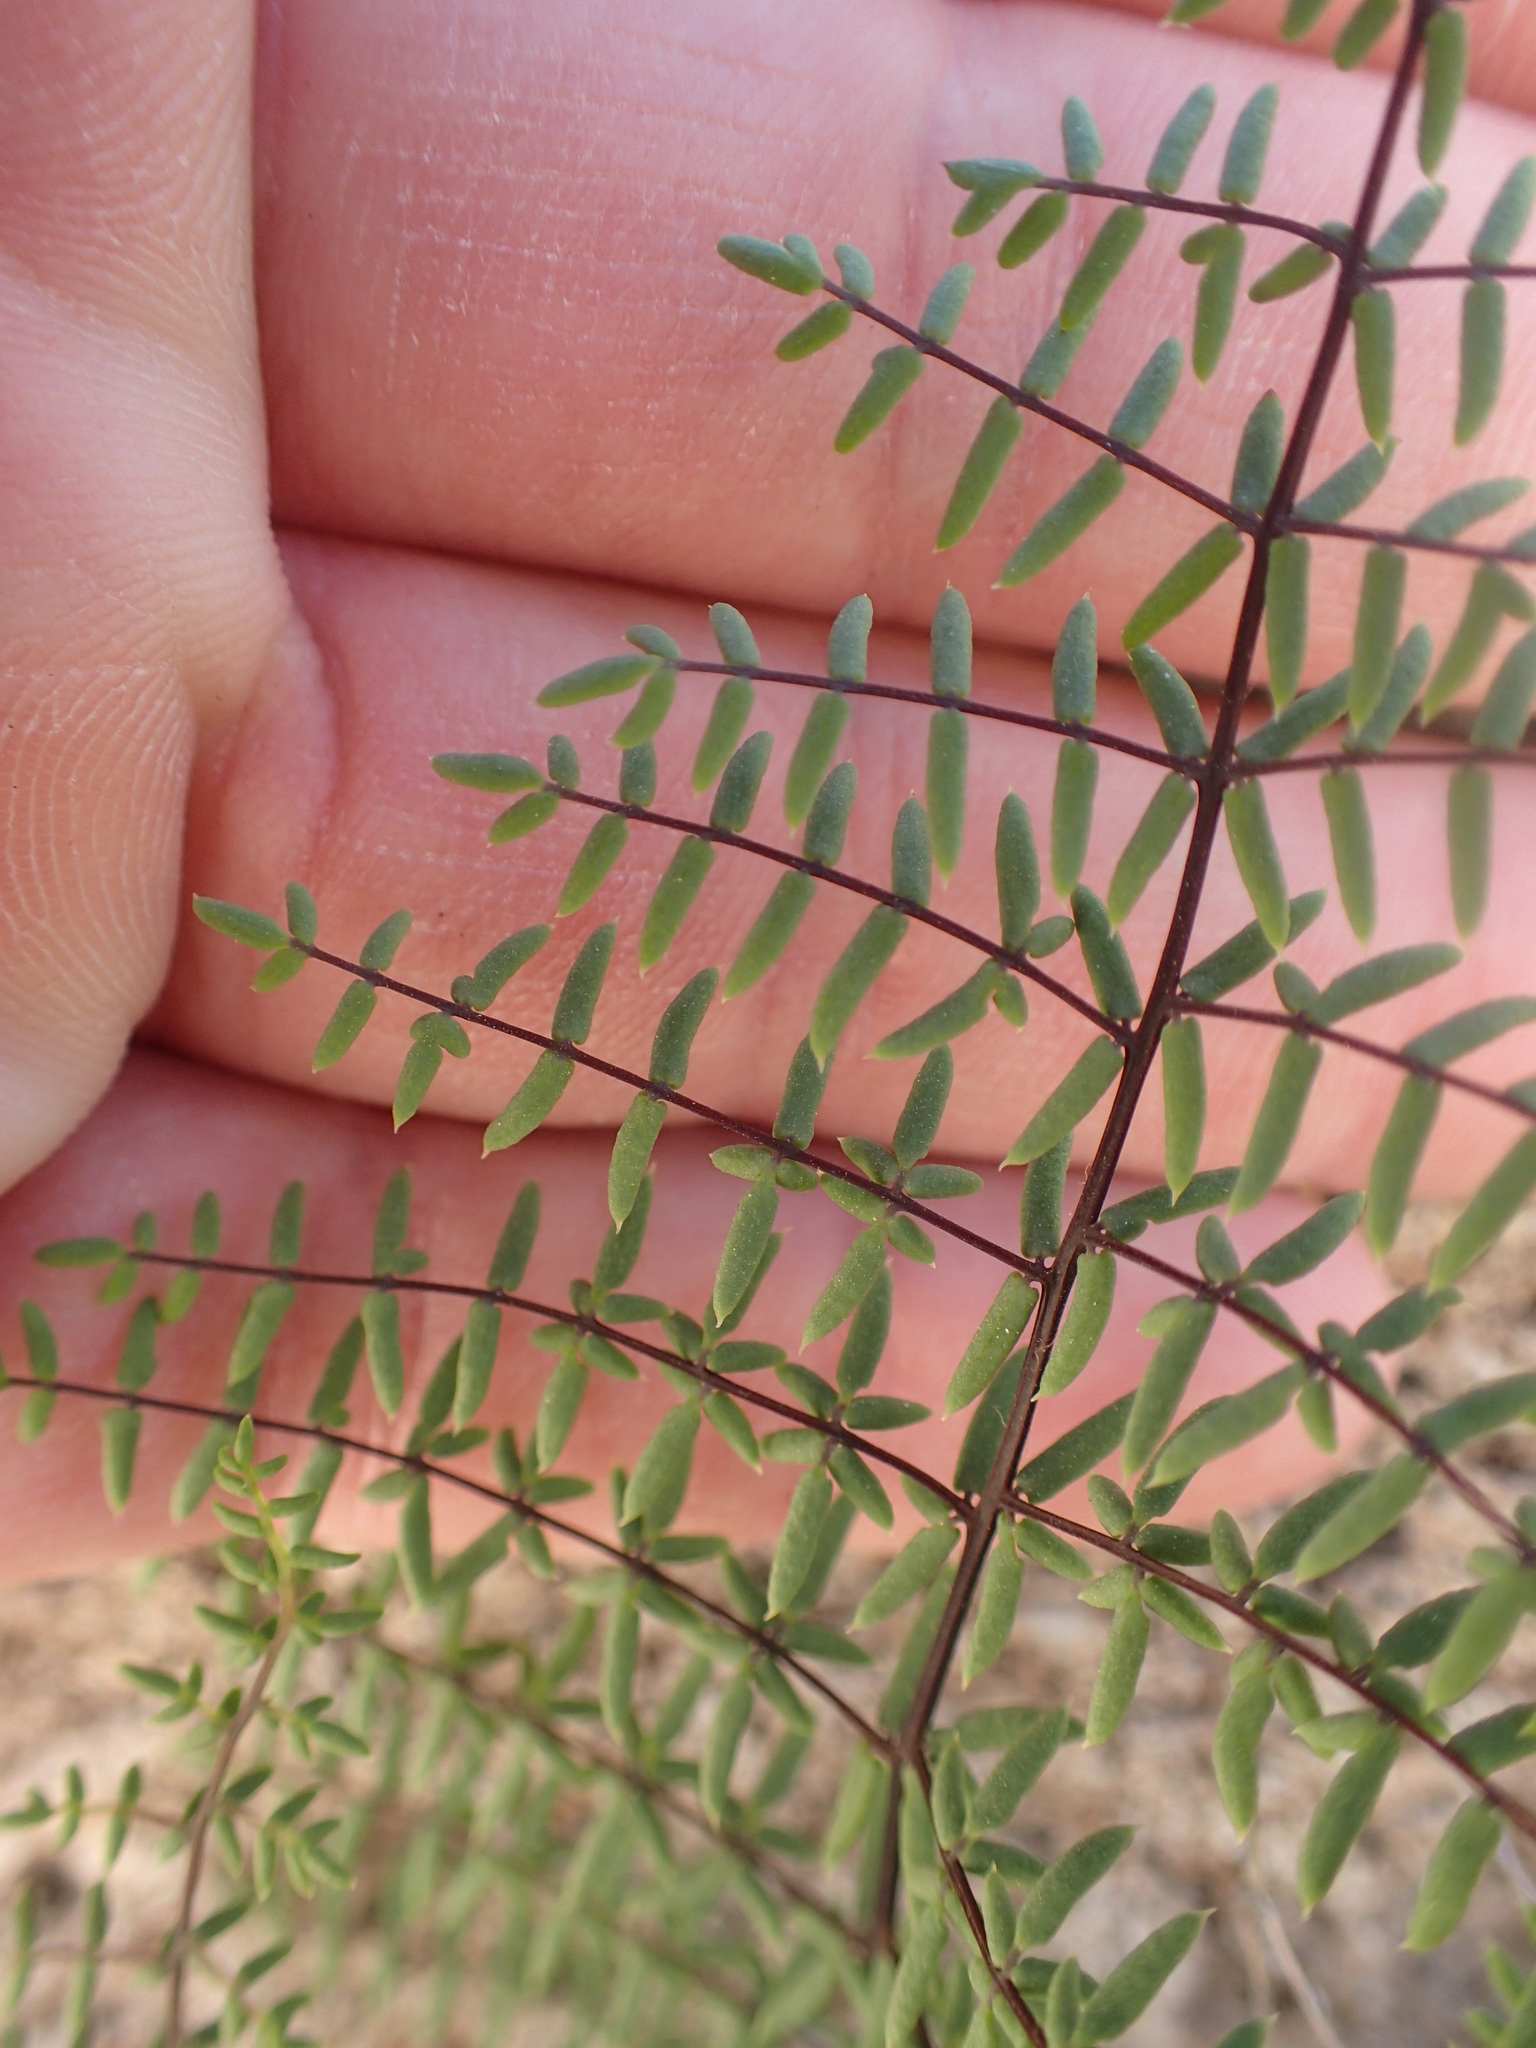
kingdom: Plantae
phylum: Tracheophyta
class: Polypodiopsida
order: Polypodiales
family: Pteridaceae
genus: Pellaea
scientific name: Pellaea mucronata
